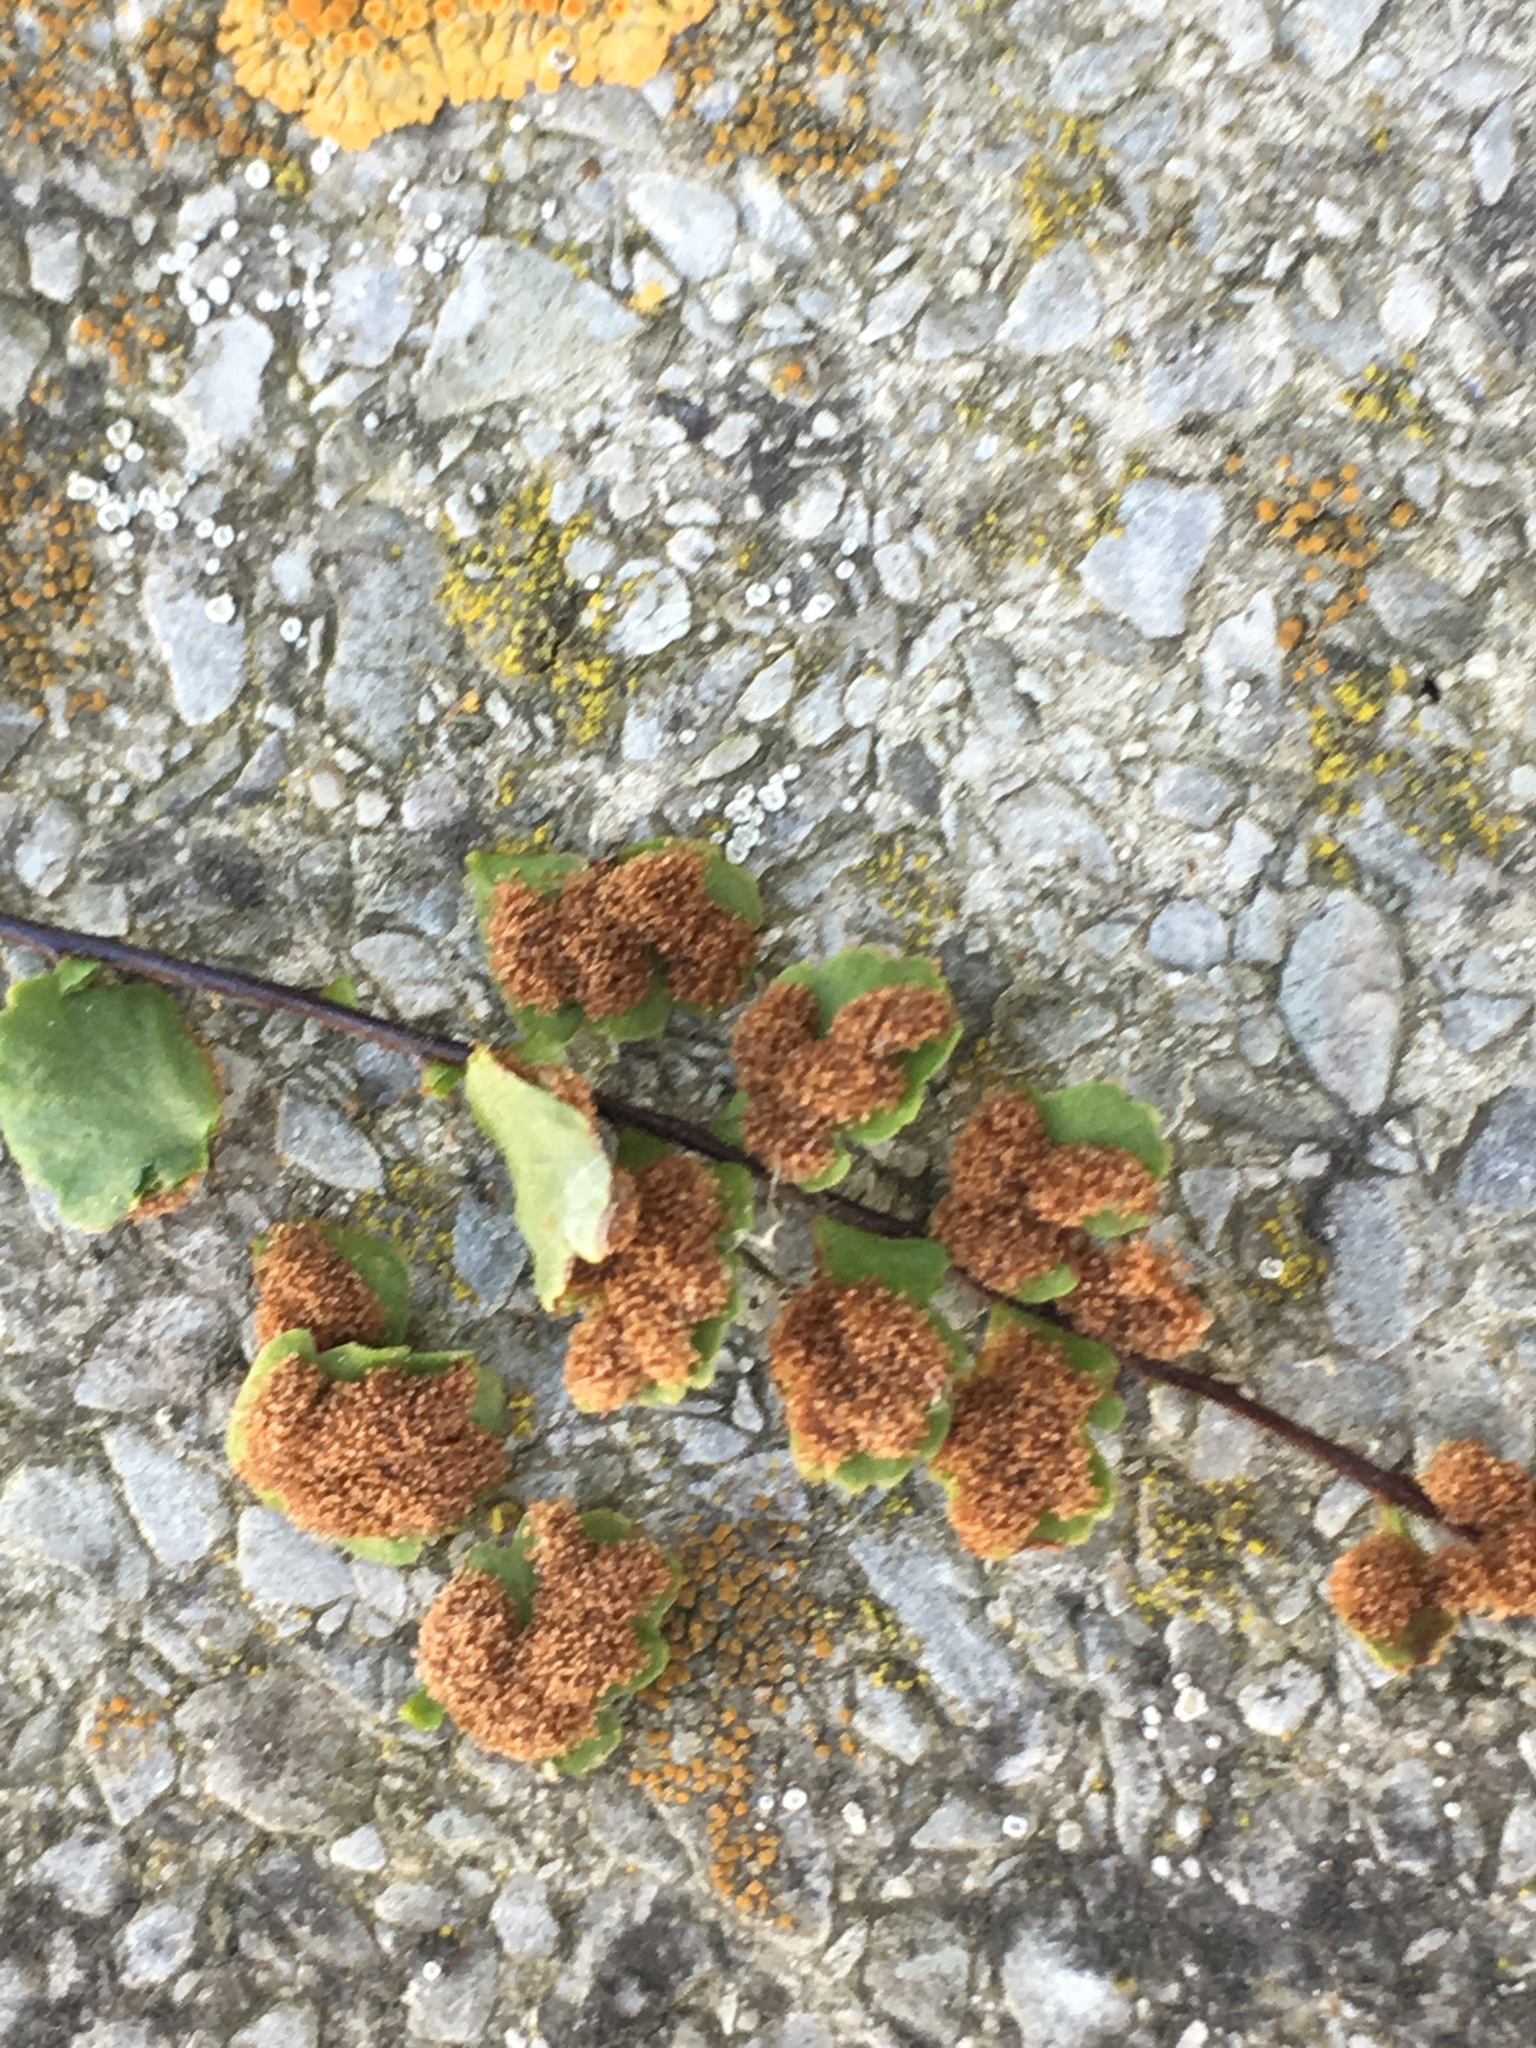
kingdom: Plantae
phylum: Tracheophyta
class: Polypodiopsida
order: Polypodiales
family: Aspleniaceae
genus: Asplenium
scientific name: Asplenium trichomanes
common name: Maidenhair spleenwort
